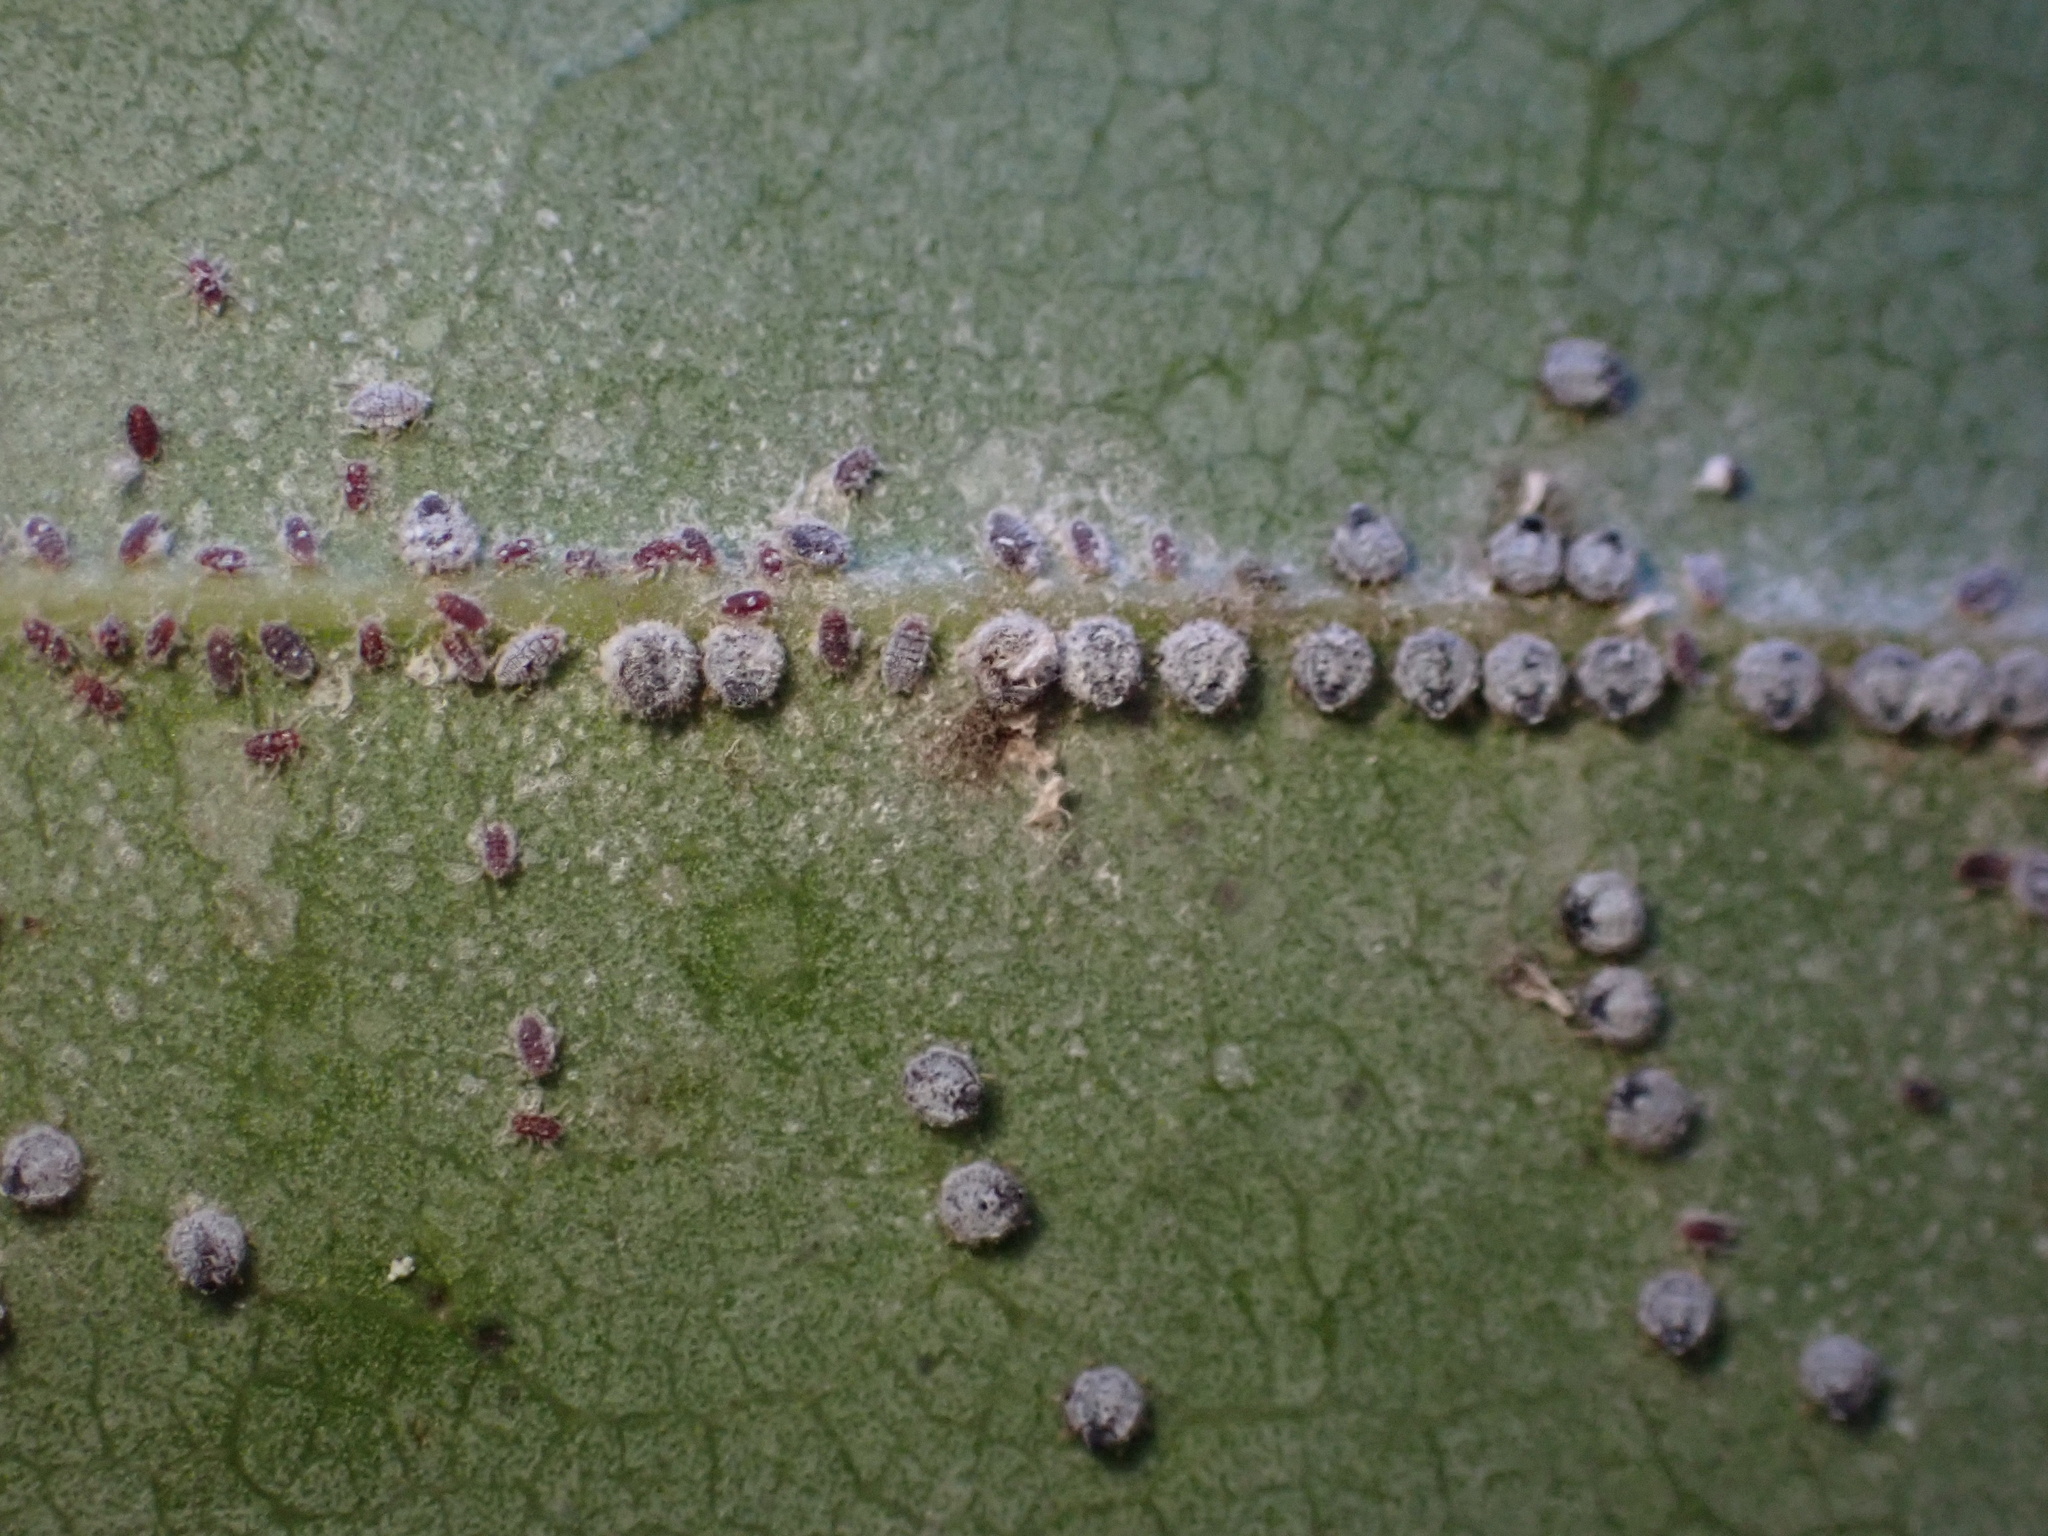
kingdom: Animalia
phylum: Arthropoda
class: Insecta
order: Hemiptera
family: Aphididae
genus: Euthoracaphis
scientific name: Euthoracaphis umbellulariae
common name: Aphid
